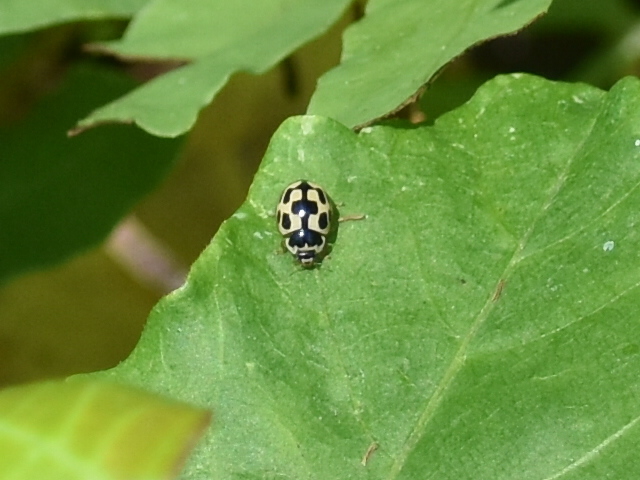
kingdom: Animalia
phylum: Arthropoda
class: Insecta
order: Coleoptera
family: Coccinellidae
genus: Propylaea
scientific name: Propylaea quatuordecimpunctata
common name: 14-spotted ladybird beetle
